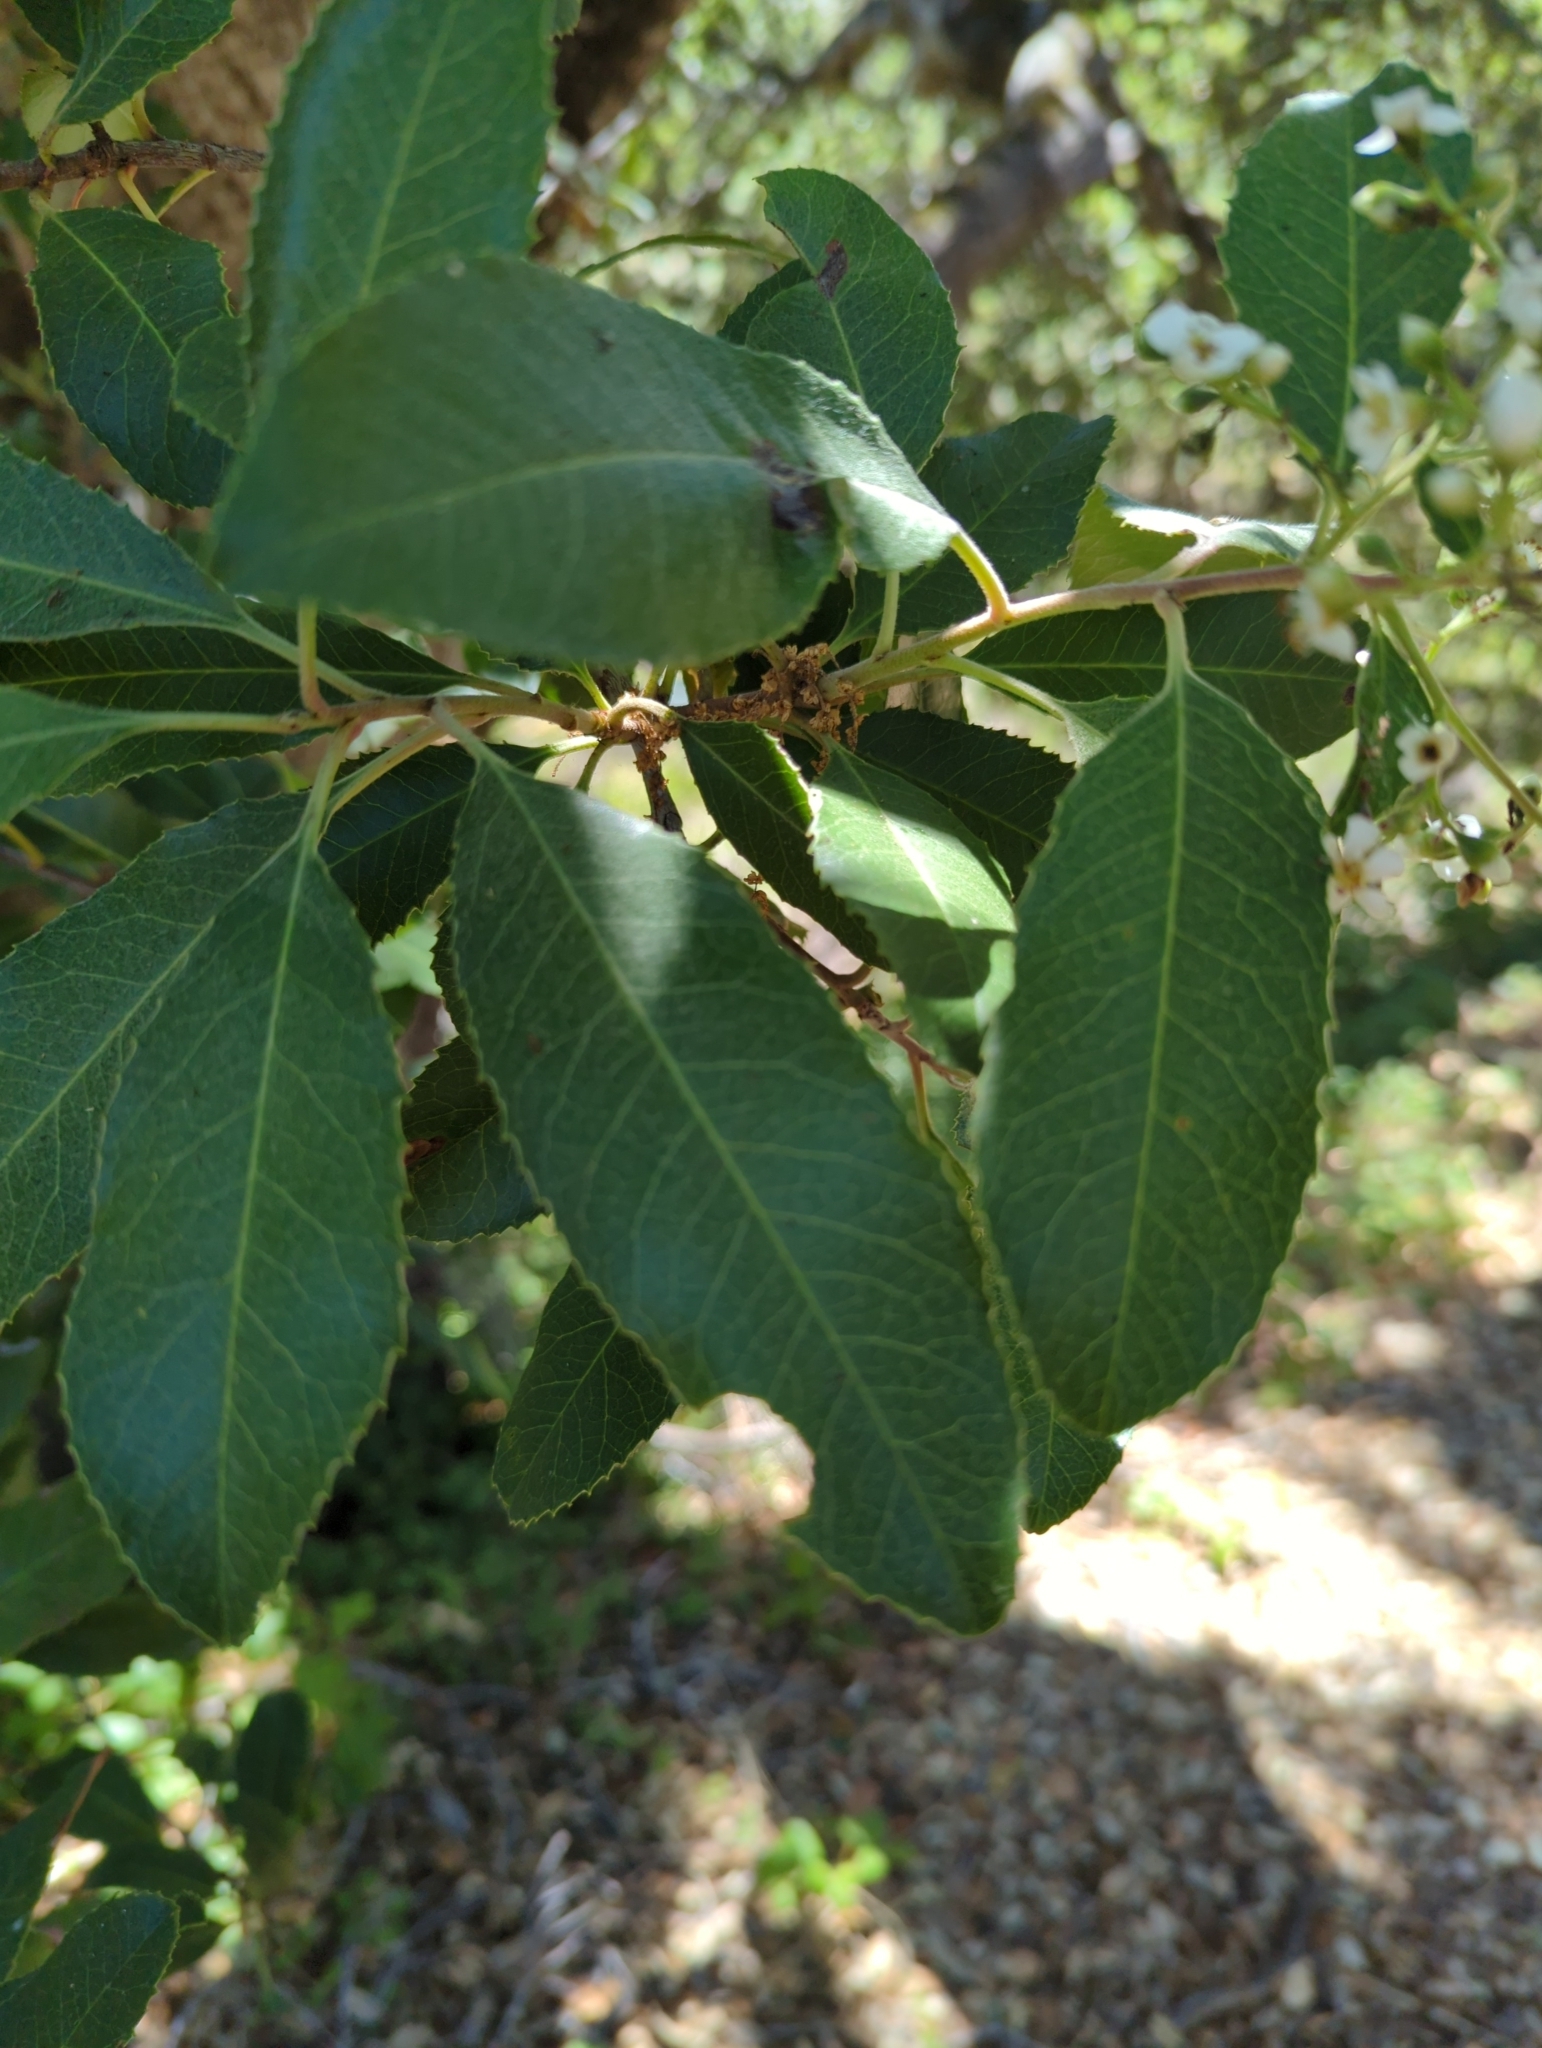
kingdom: Plantae
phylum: Tracheophyta
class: Magnoliopsida
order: Rosales
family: Rosaceae
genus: Heteromeles
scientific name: Heteromeles arbutifolia
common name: California-holly
